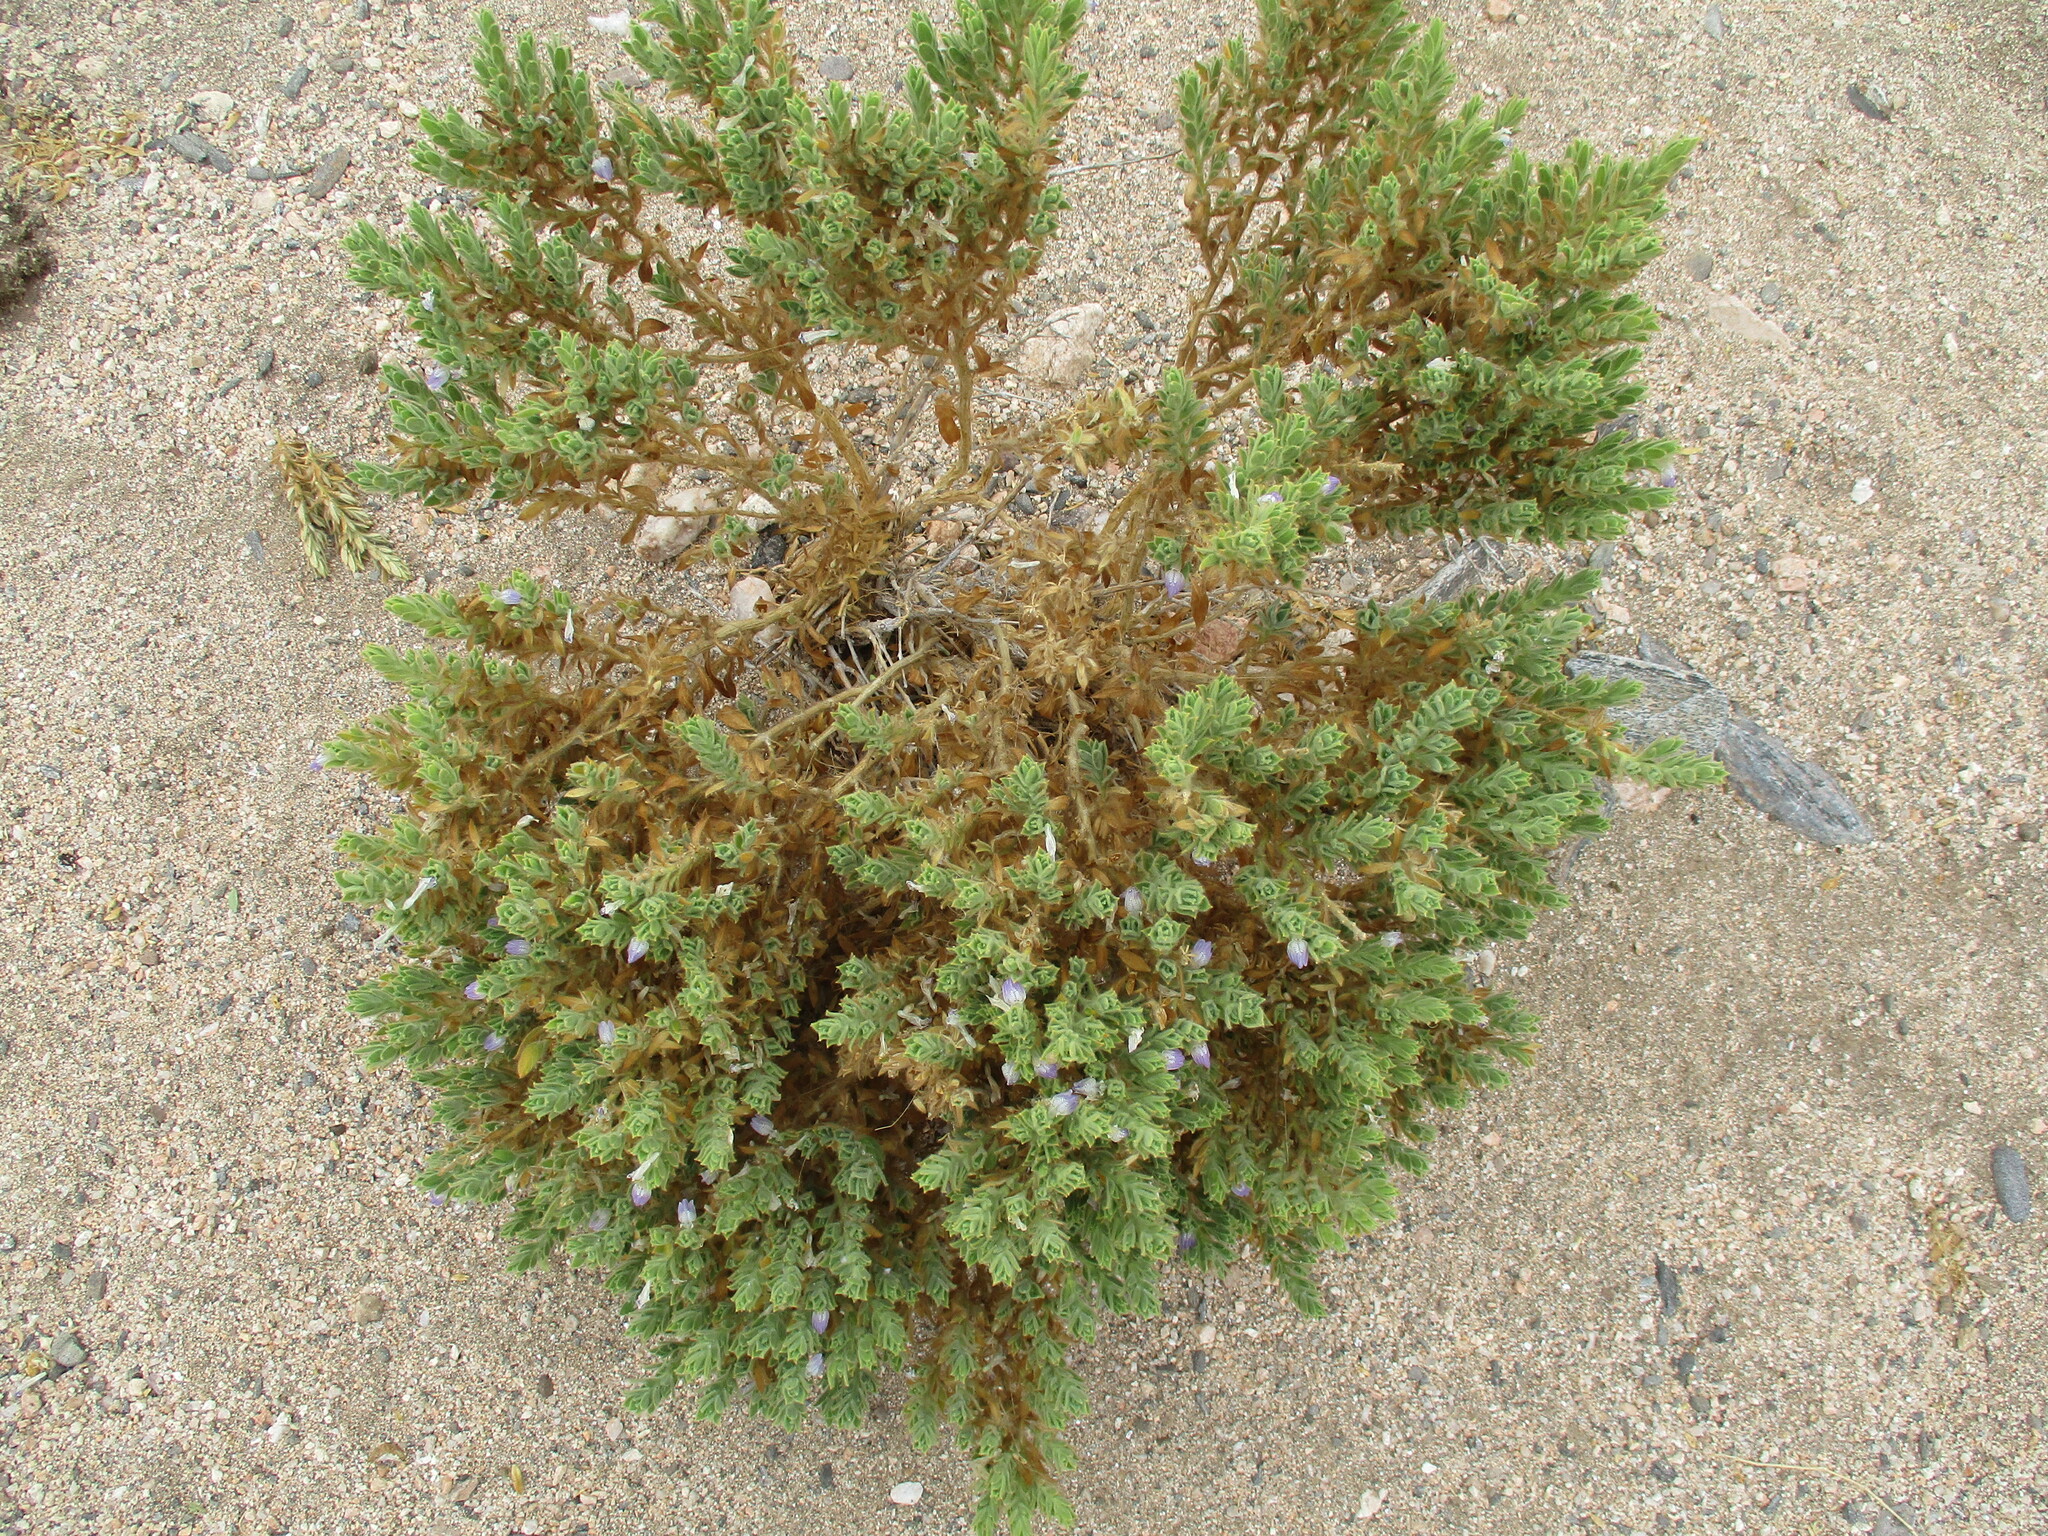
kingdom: Plantae
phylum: Tracheophyta
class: Magnoliopsida
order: Lamiales
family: Acanthaceae
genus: Pogonospermum
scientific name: Pogonospermum
